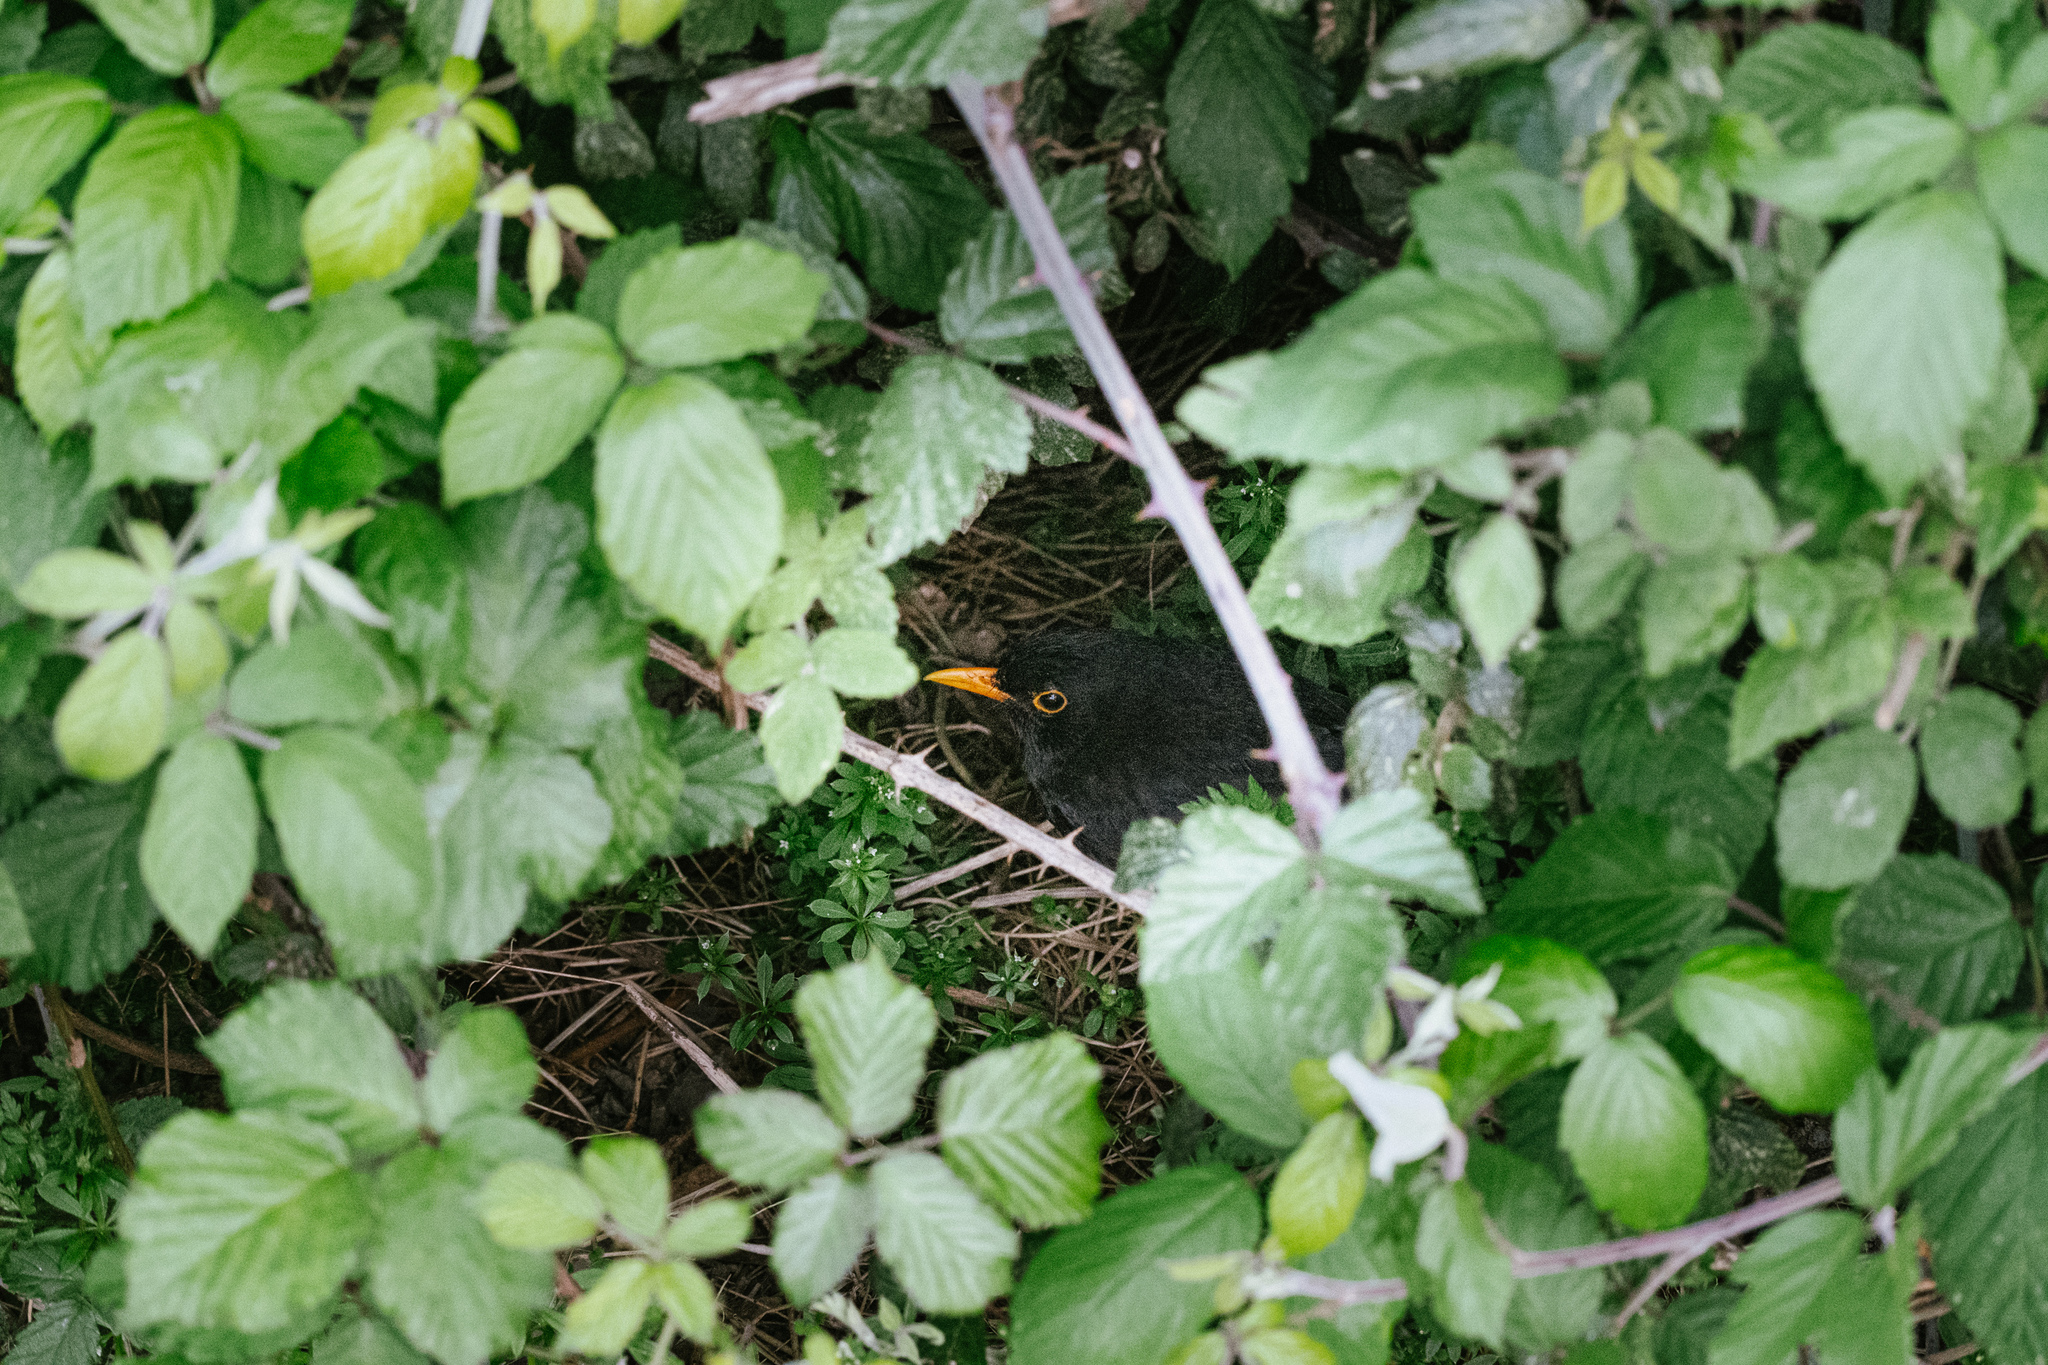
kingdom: Animalia
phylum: Chordata
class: Aves
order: Passeriformes
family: Turdidae
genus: Turdus
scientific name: Turdus merula
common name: Common blackbird
